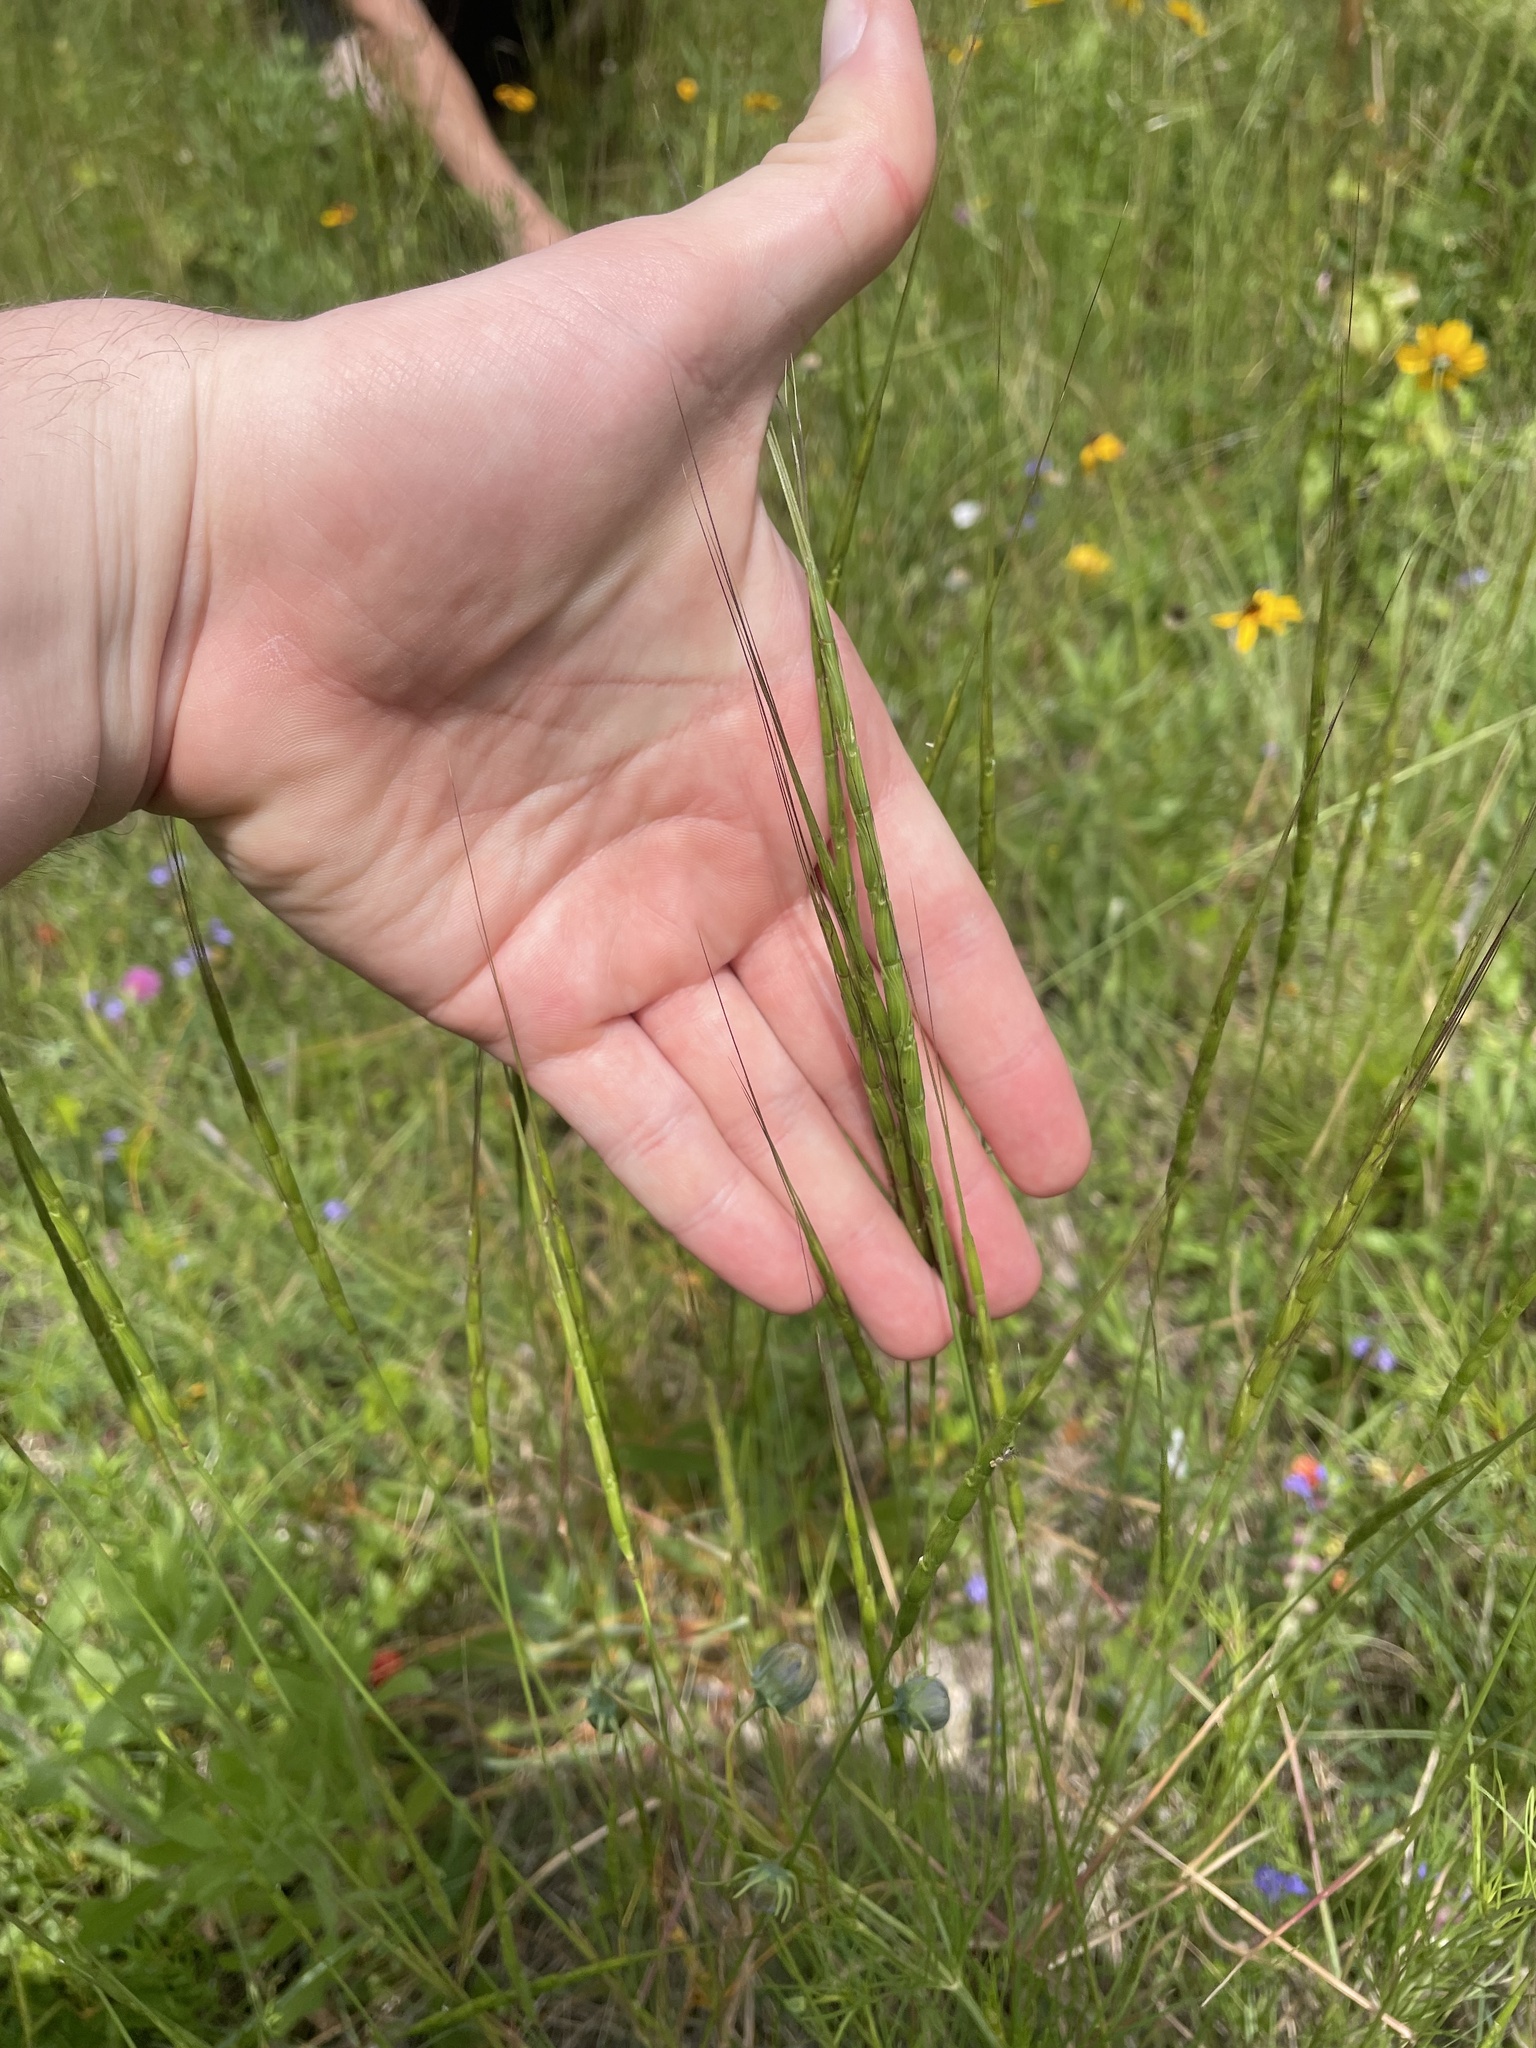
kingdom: Plantae
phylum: Tracheophyta
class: Liliopsida
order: Poales
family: Poaceae
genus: Aegilops
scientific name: Aegilops cylindrica
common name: Jointed goatgrass
